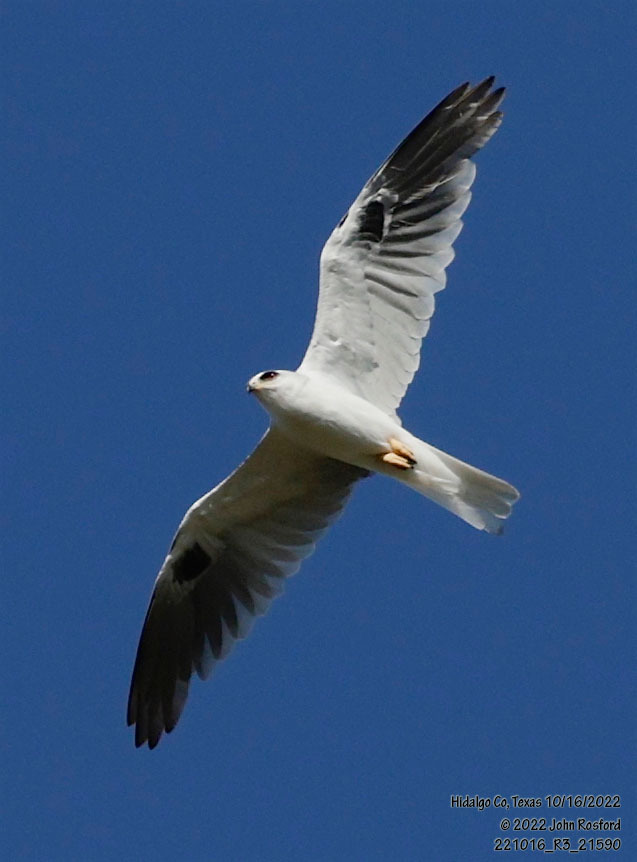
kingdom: Animalia
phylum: Chordata
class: Aves
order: Accipitriformes
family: Accipitridae
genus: Elanus
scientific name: Elanus leucurus
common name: White-tailed kite
